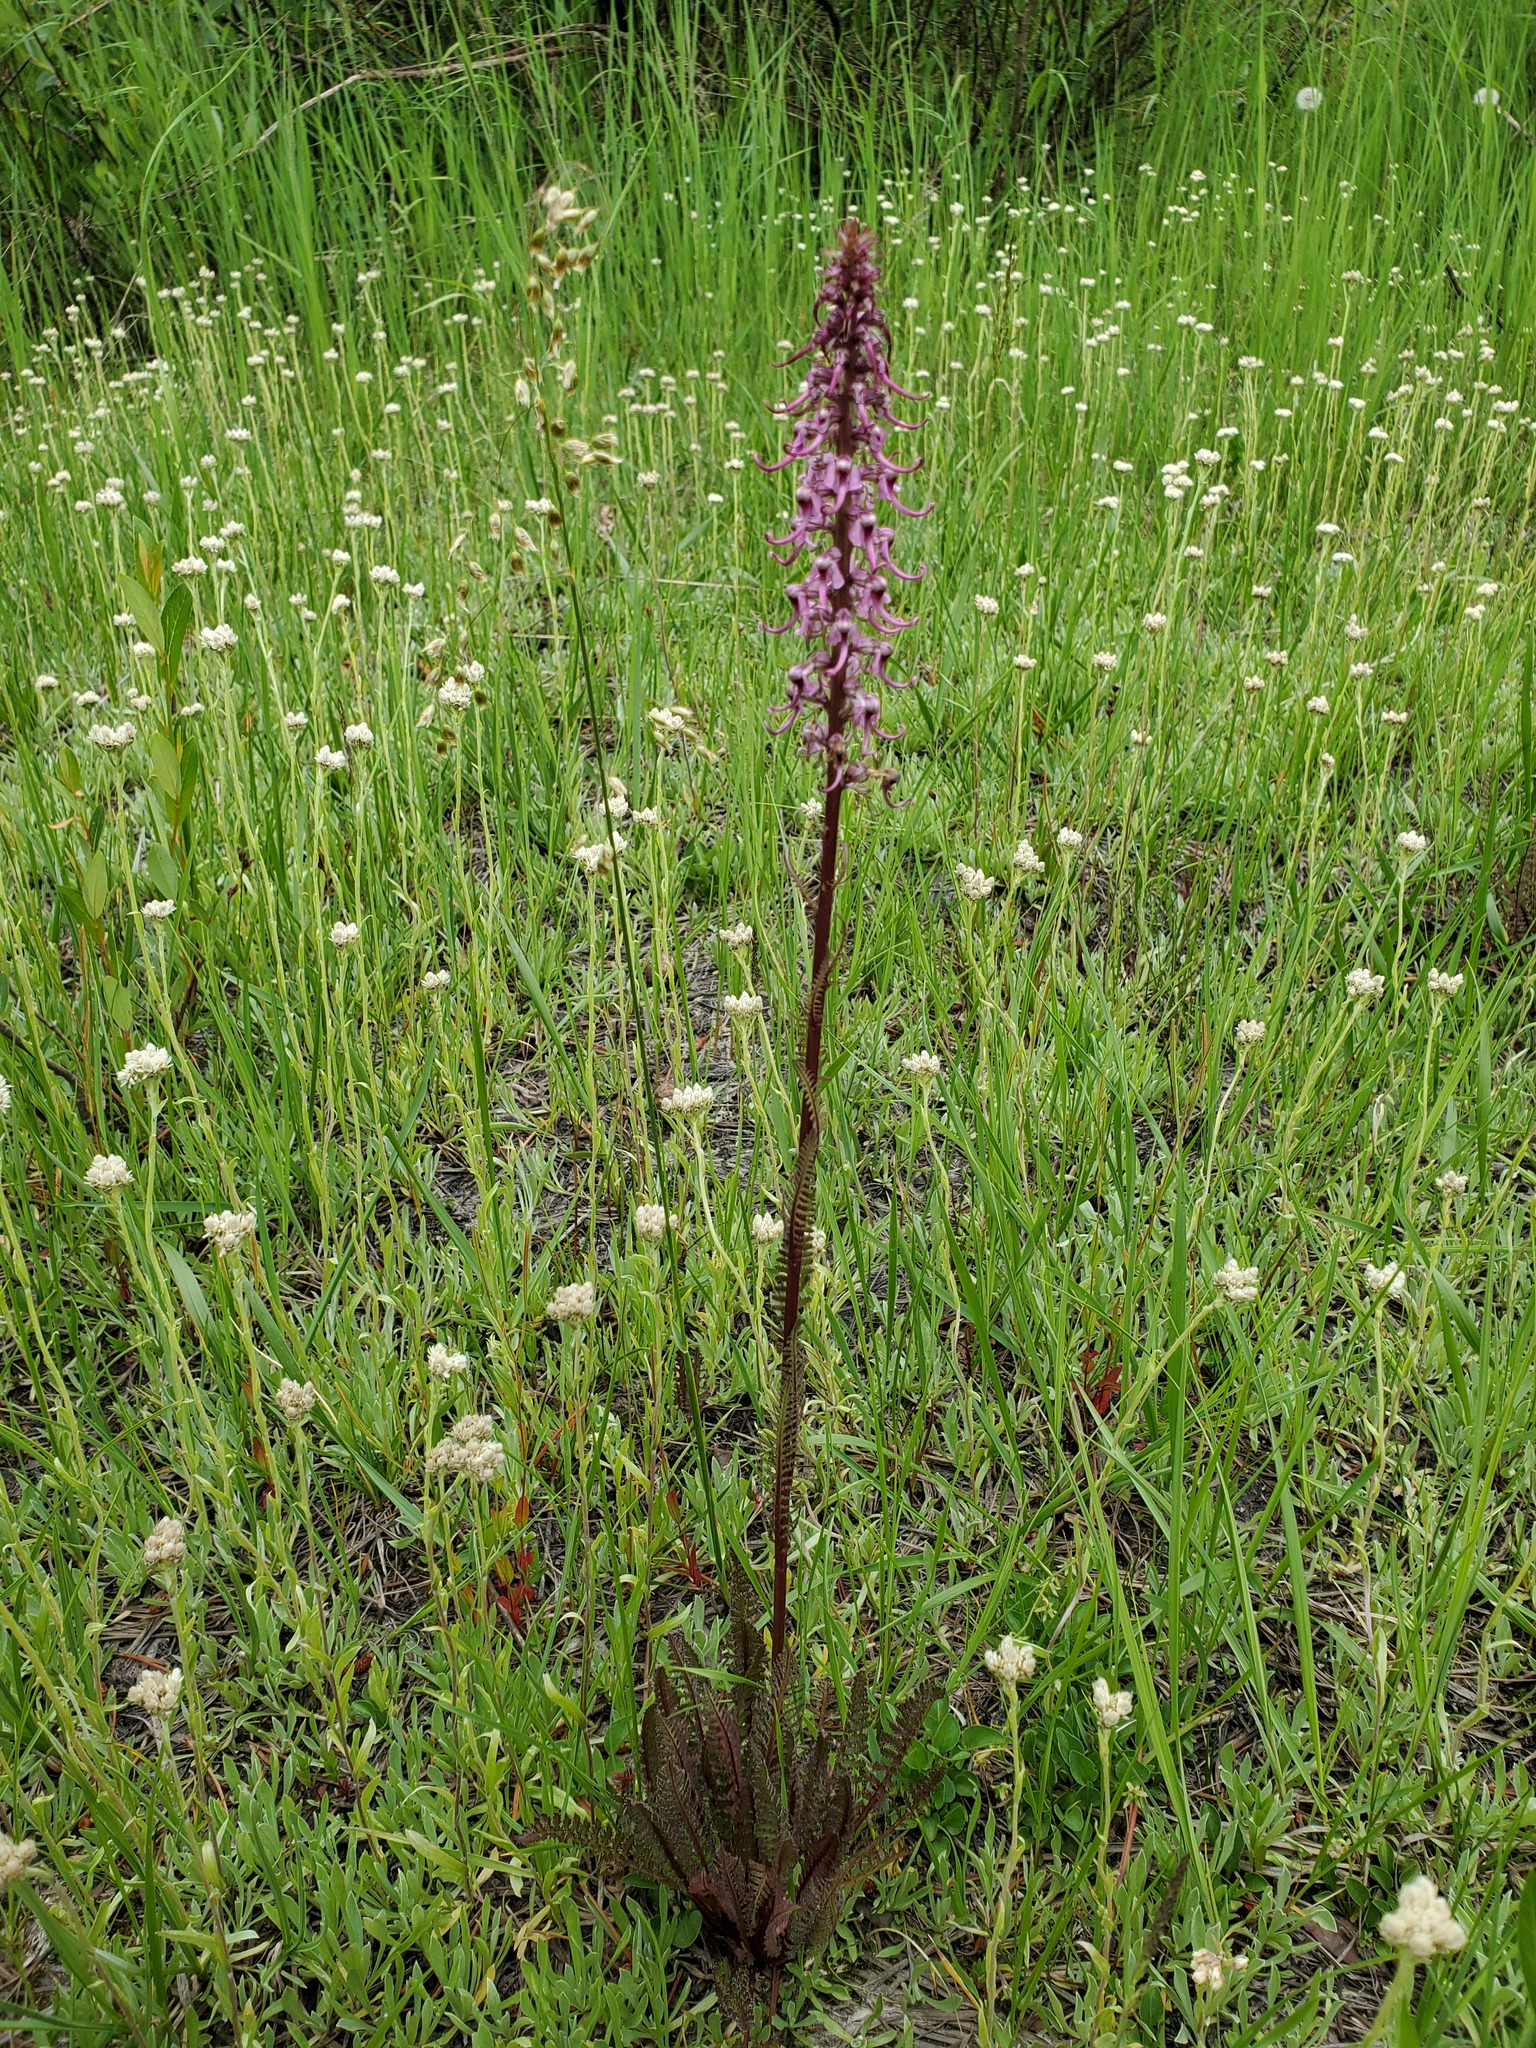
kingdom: Plantae
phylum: Tracheophyta
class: Magnoliopsida
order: Lamiales
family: Orobanchaceae
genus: Pedicularis
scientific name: Pedicularis groenlandica
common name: Elephant's-head
